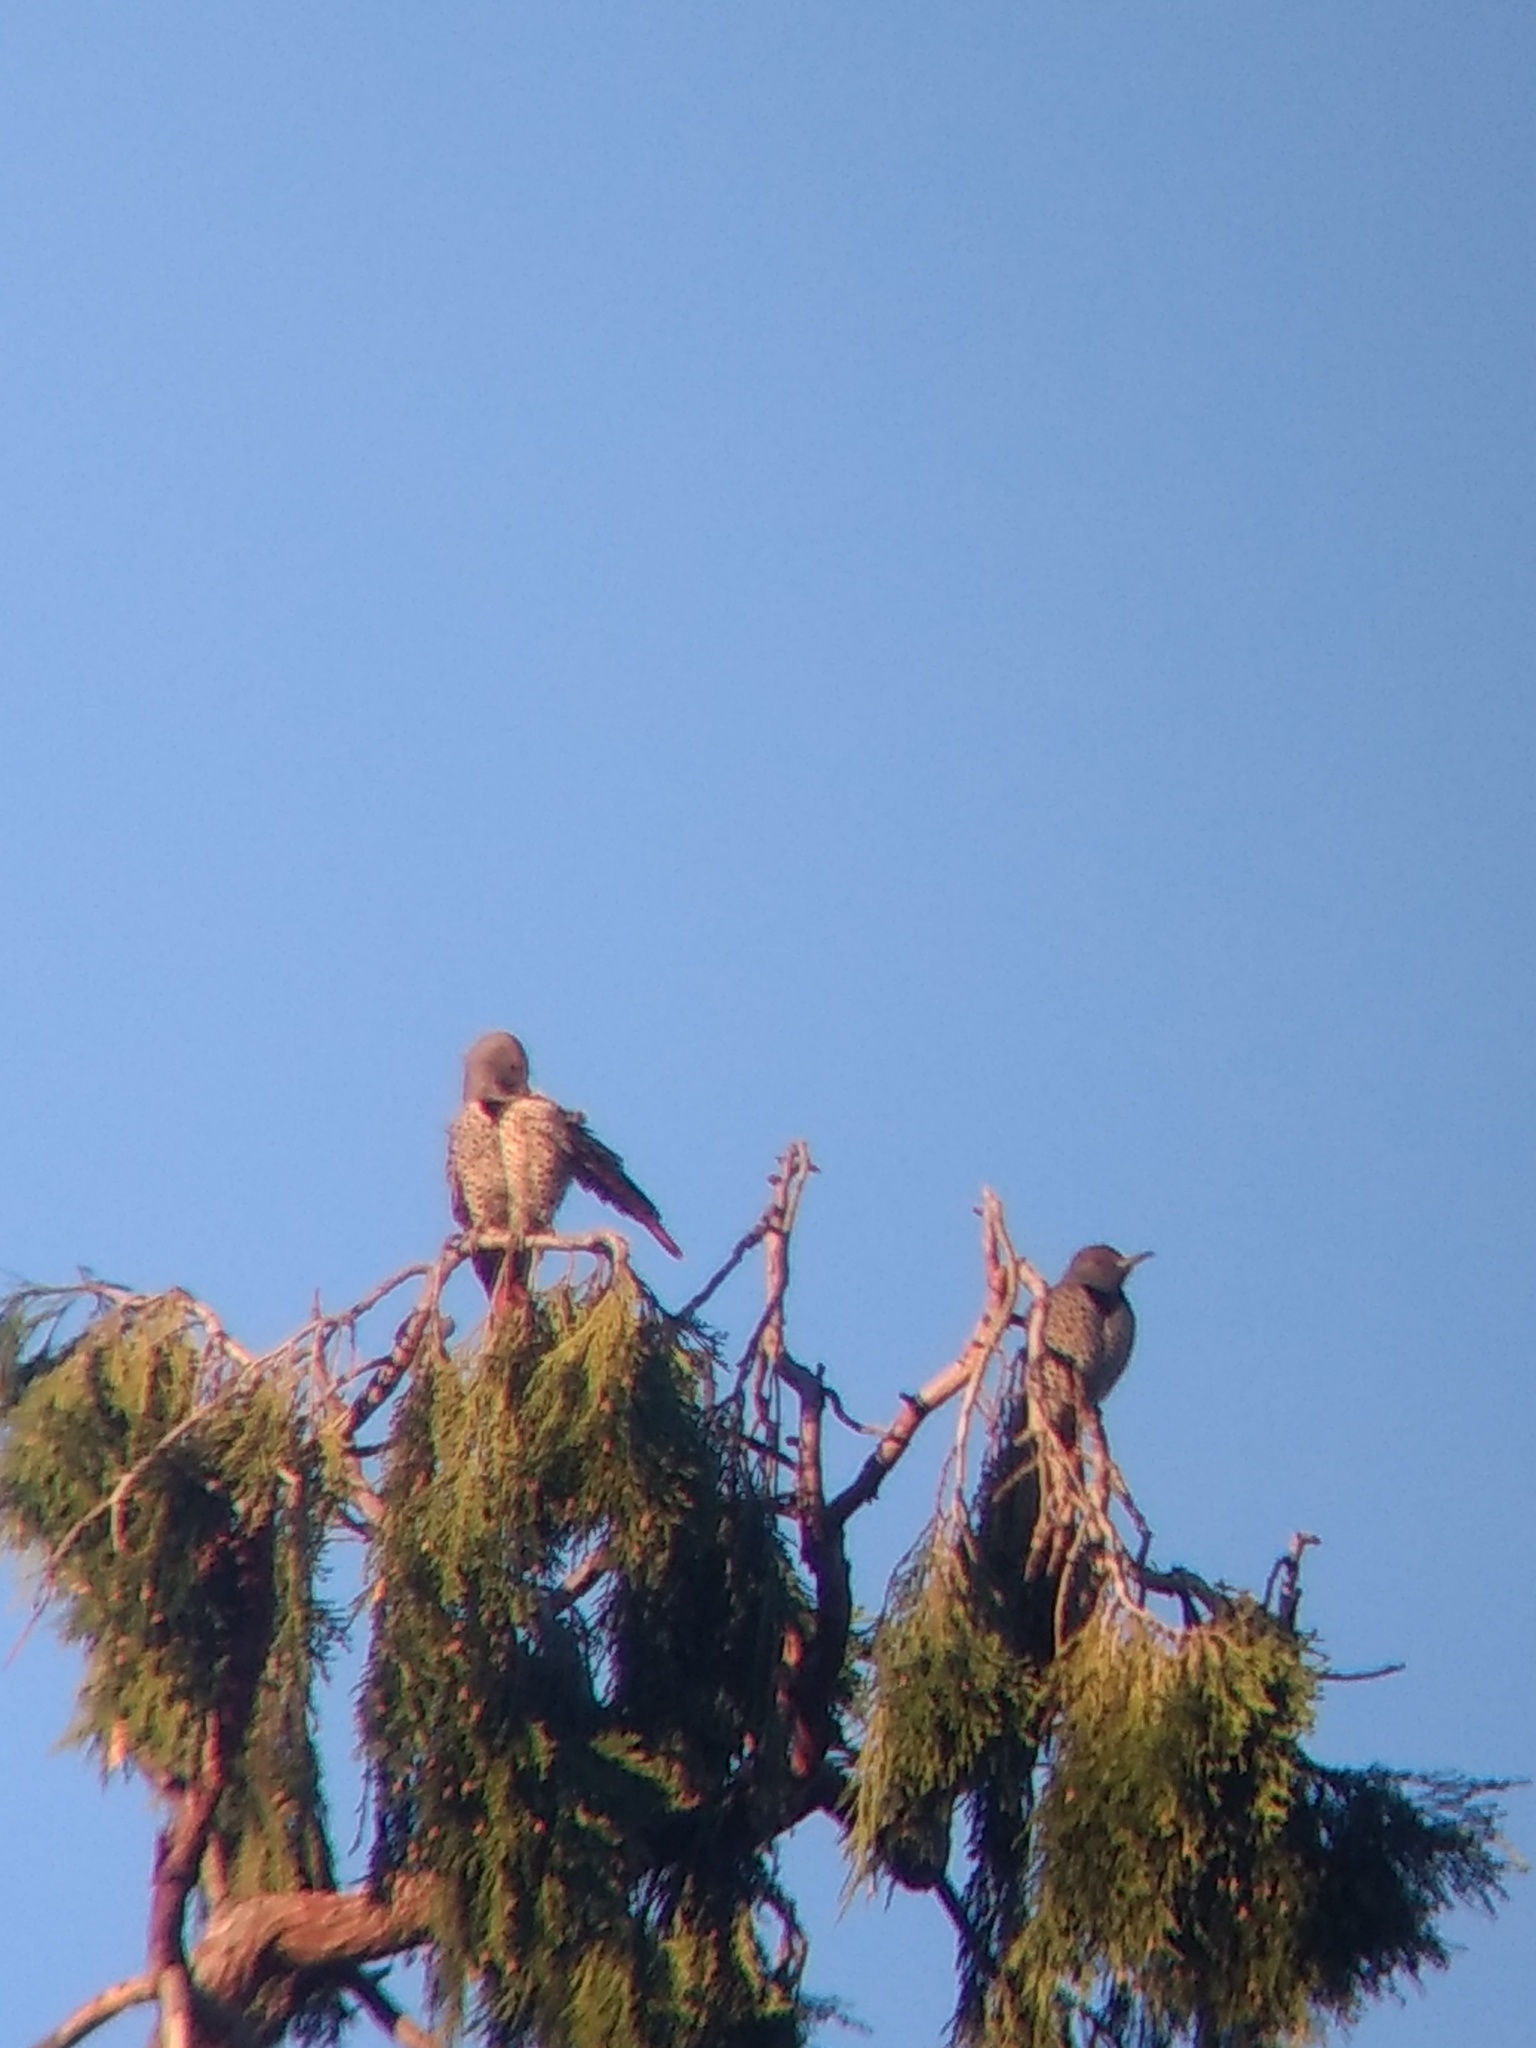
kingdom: Animalia
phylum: Chordata
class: Aves
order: Piciformes
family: Picidae
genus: Colaptes
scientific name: Colaptes auratus
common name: Northern flicker
